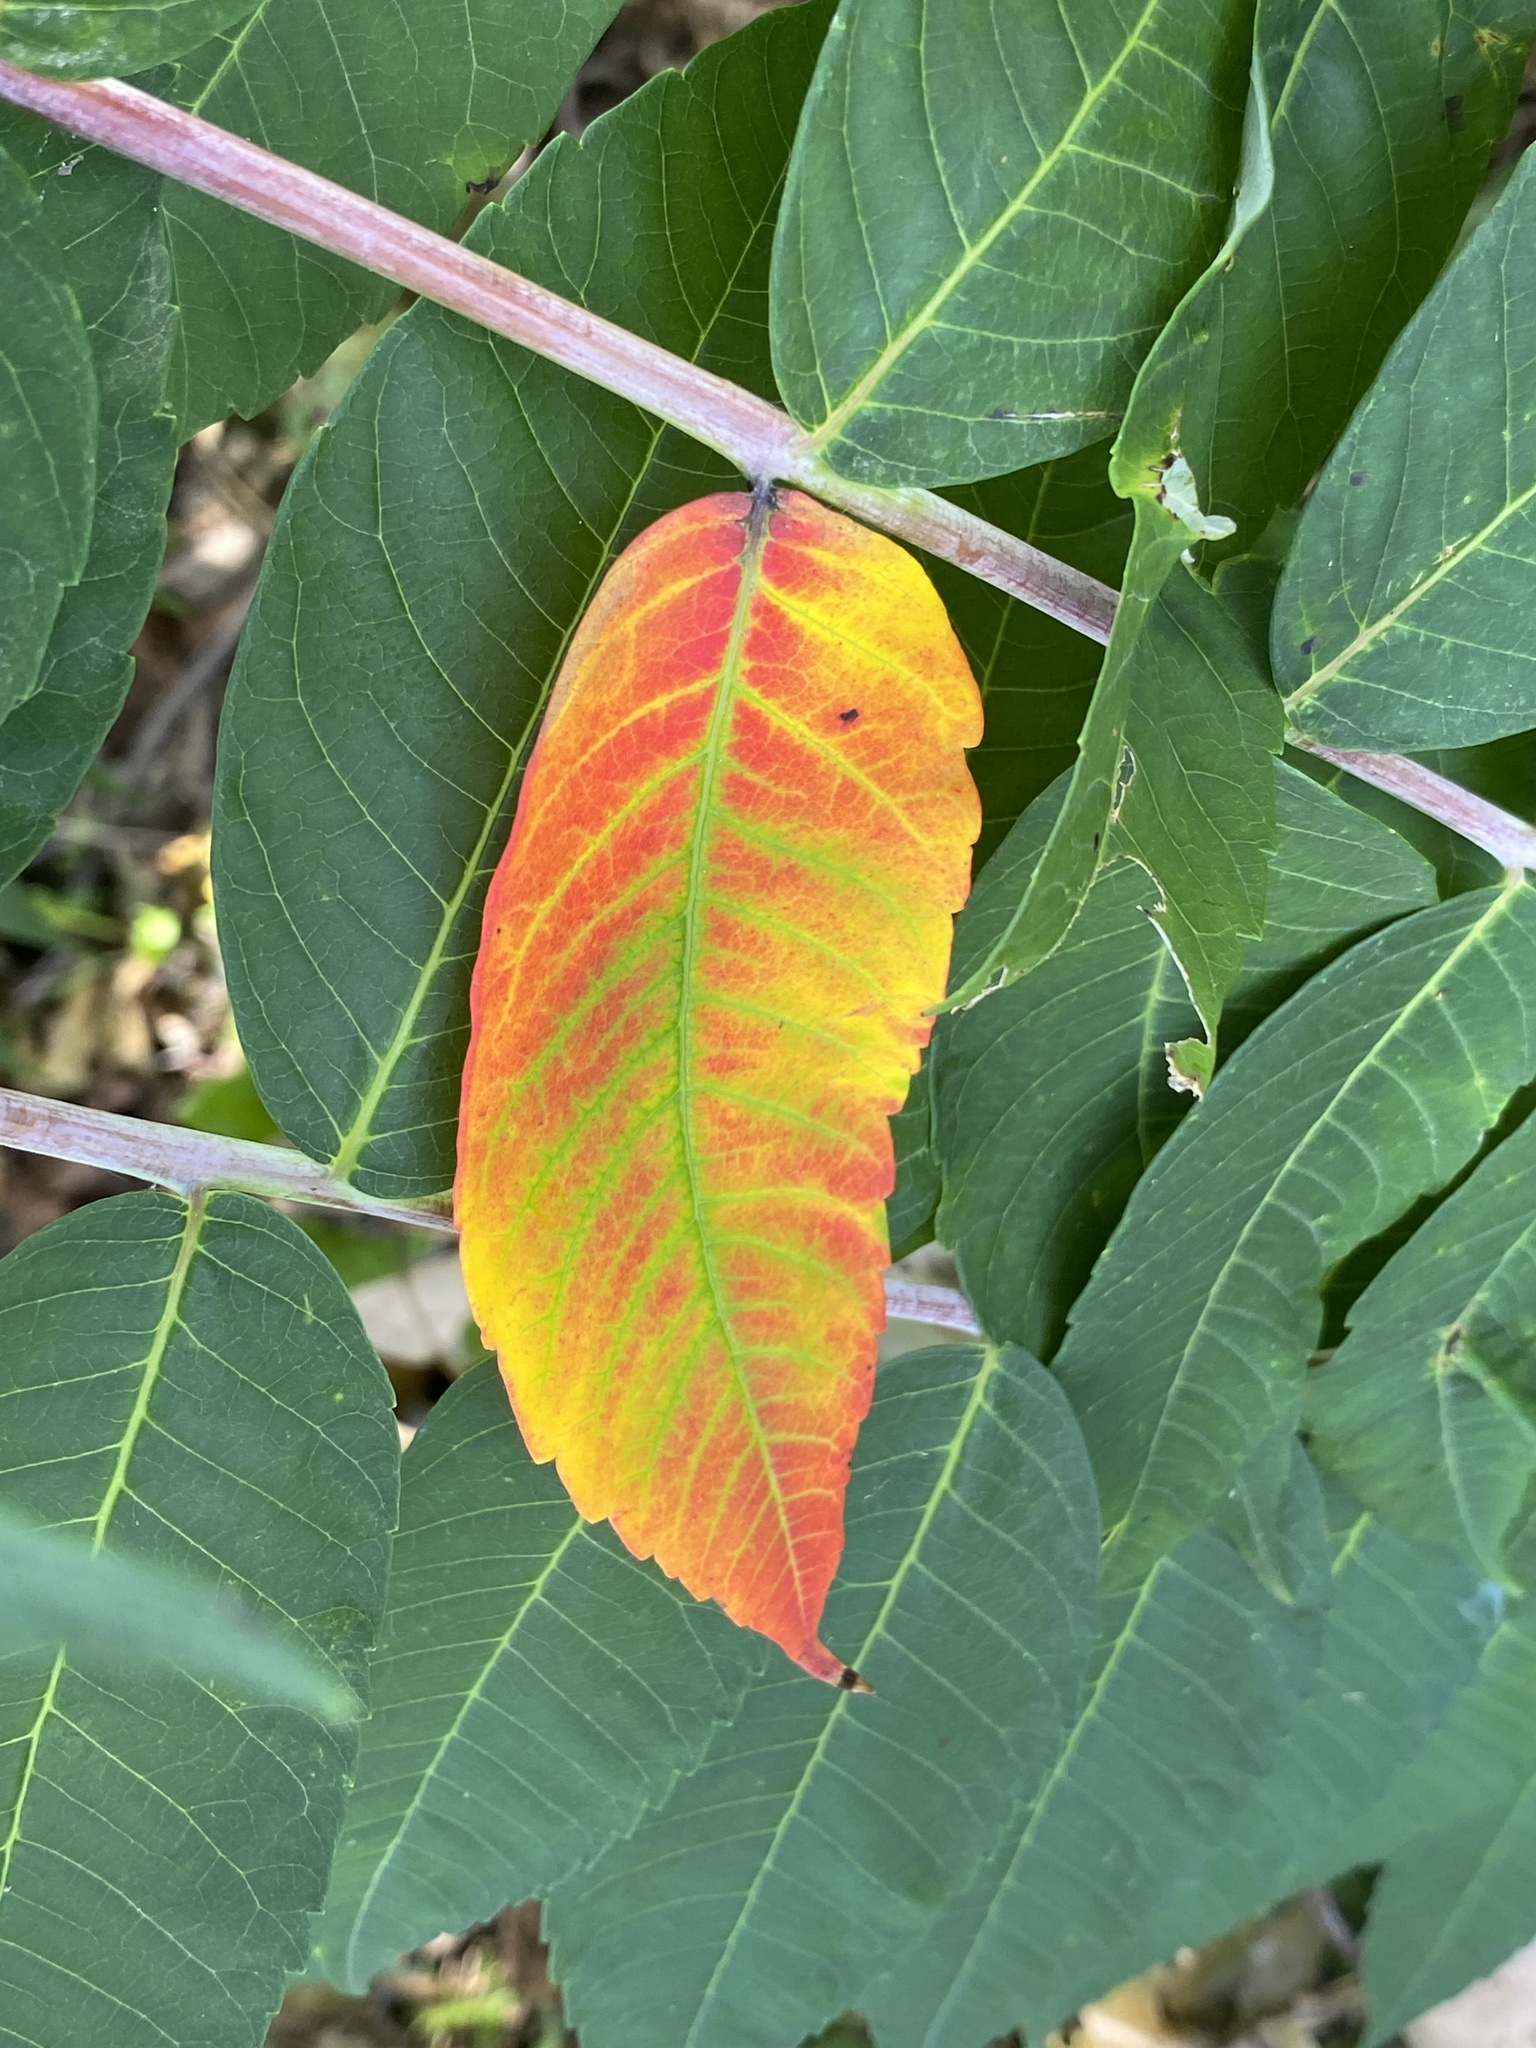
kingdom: Plantae
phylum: Tracheophyta
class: Magnoliopsida
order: Sapindales
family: Anacardiaceae
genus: Rhus
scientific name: Rhus glabra
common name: Scarlet sumac
